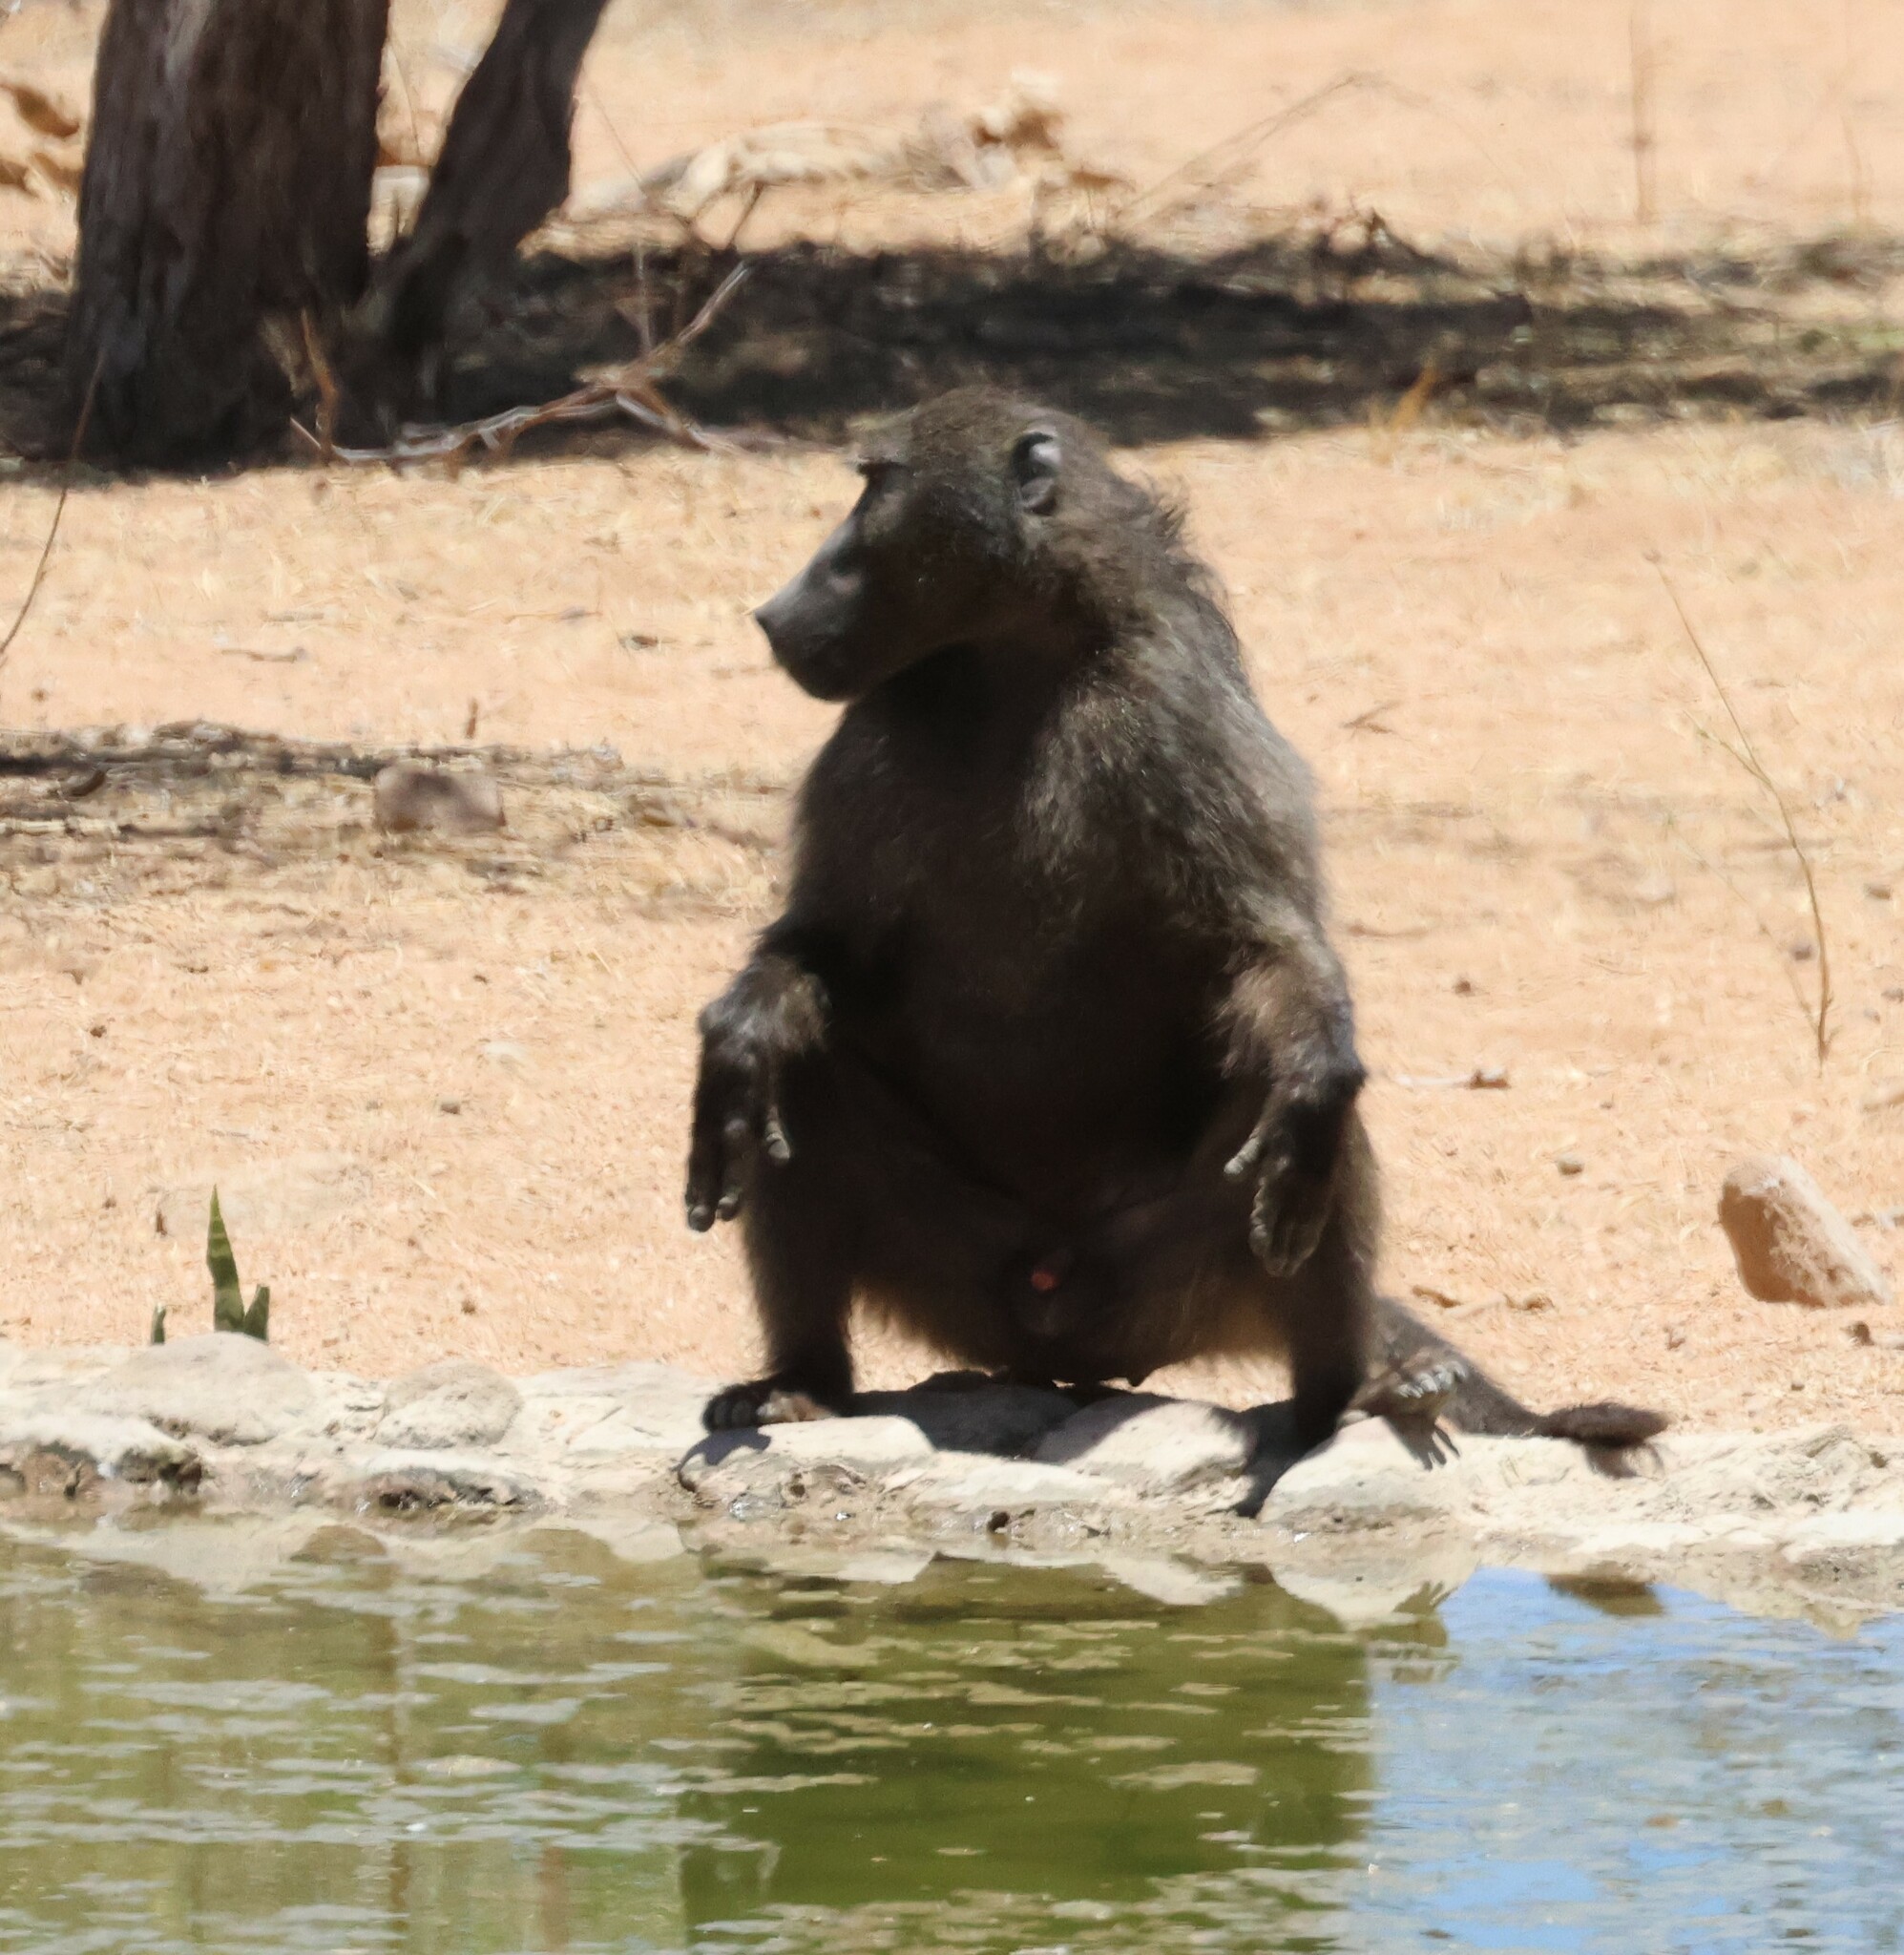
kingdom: Animalia
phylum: Chordata
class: Mammalia
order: Primates
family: Cercopithecidae
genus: Papio
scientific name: Papio ursinus
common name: Chacma baboon
